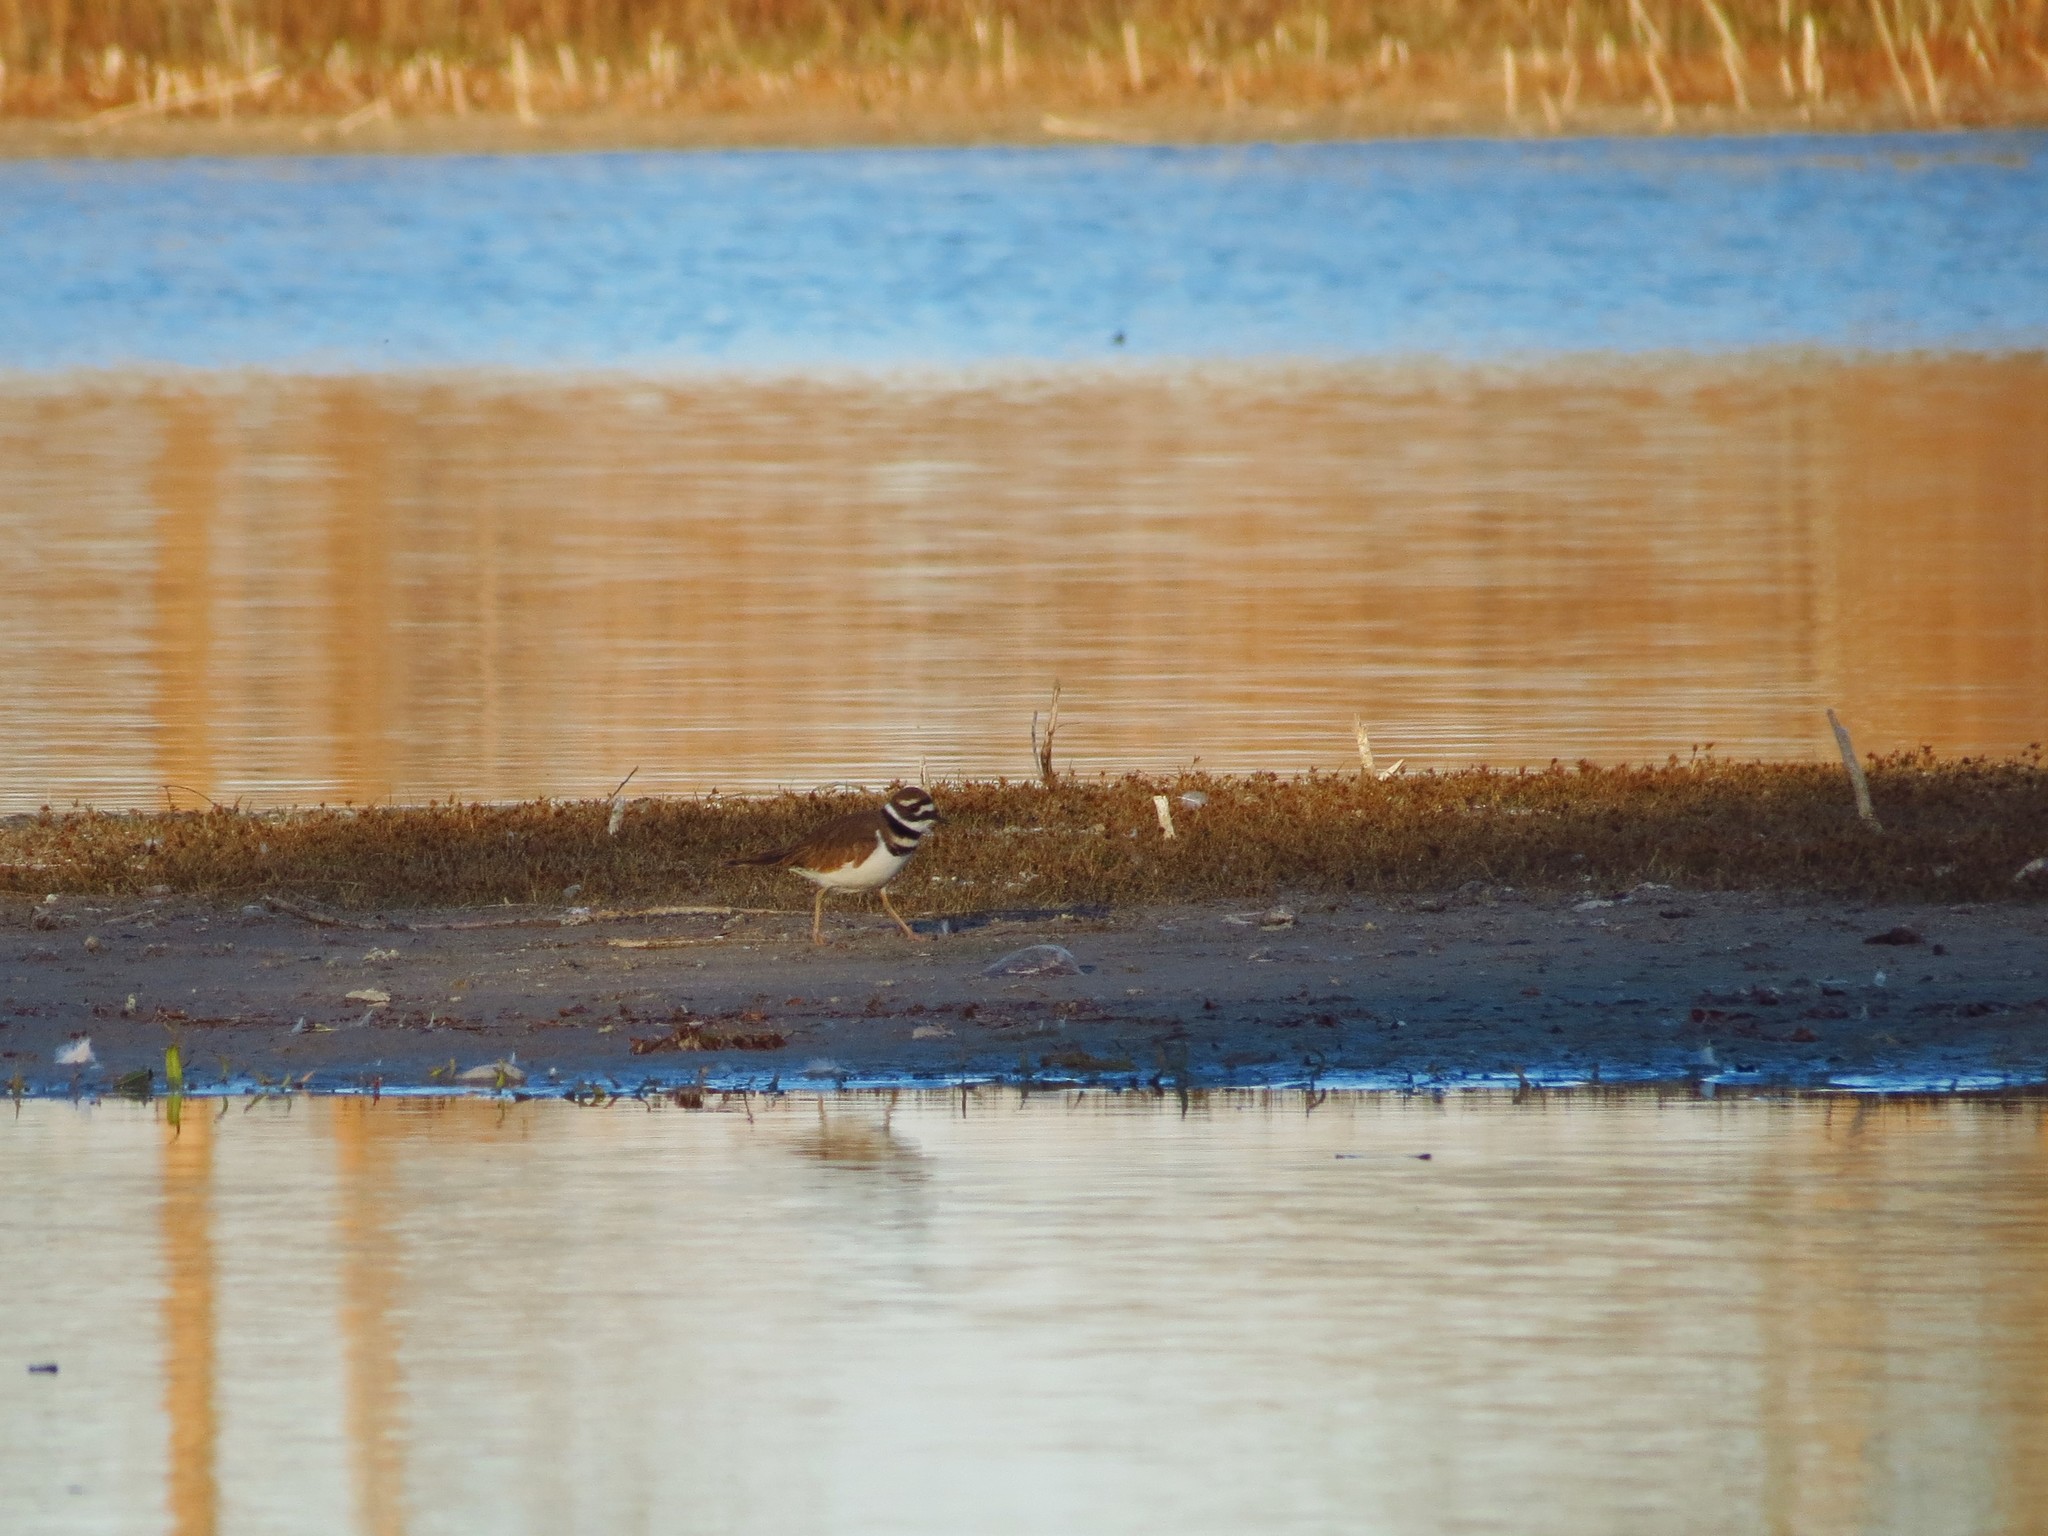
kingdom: Animalia
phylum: Chordata
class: Aves
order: Charadriiformes
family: Charadriidae
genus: Charadrius
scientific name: Charadrius vociferus
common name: Killdeer
